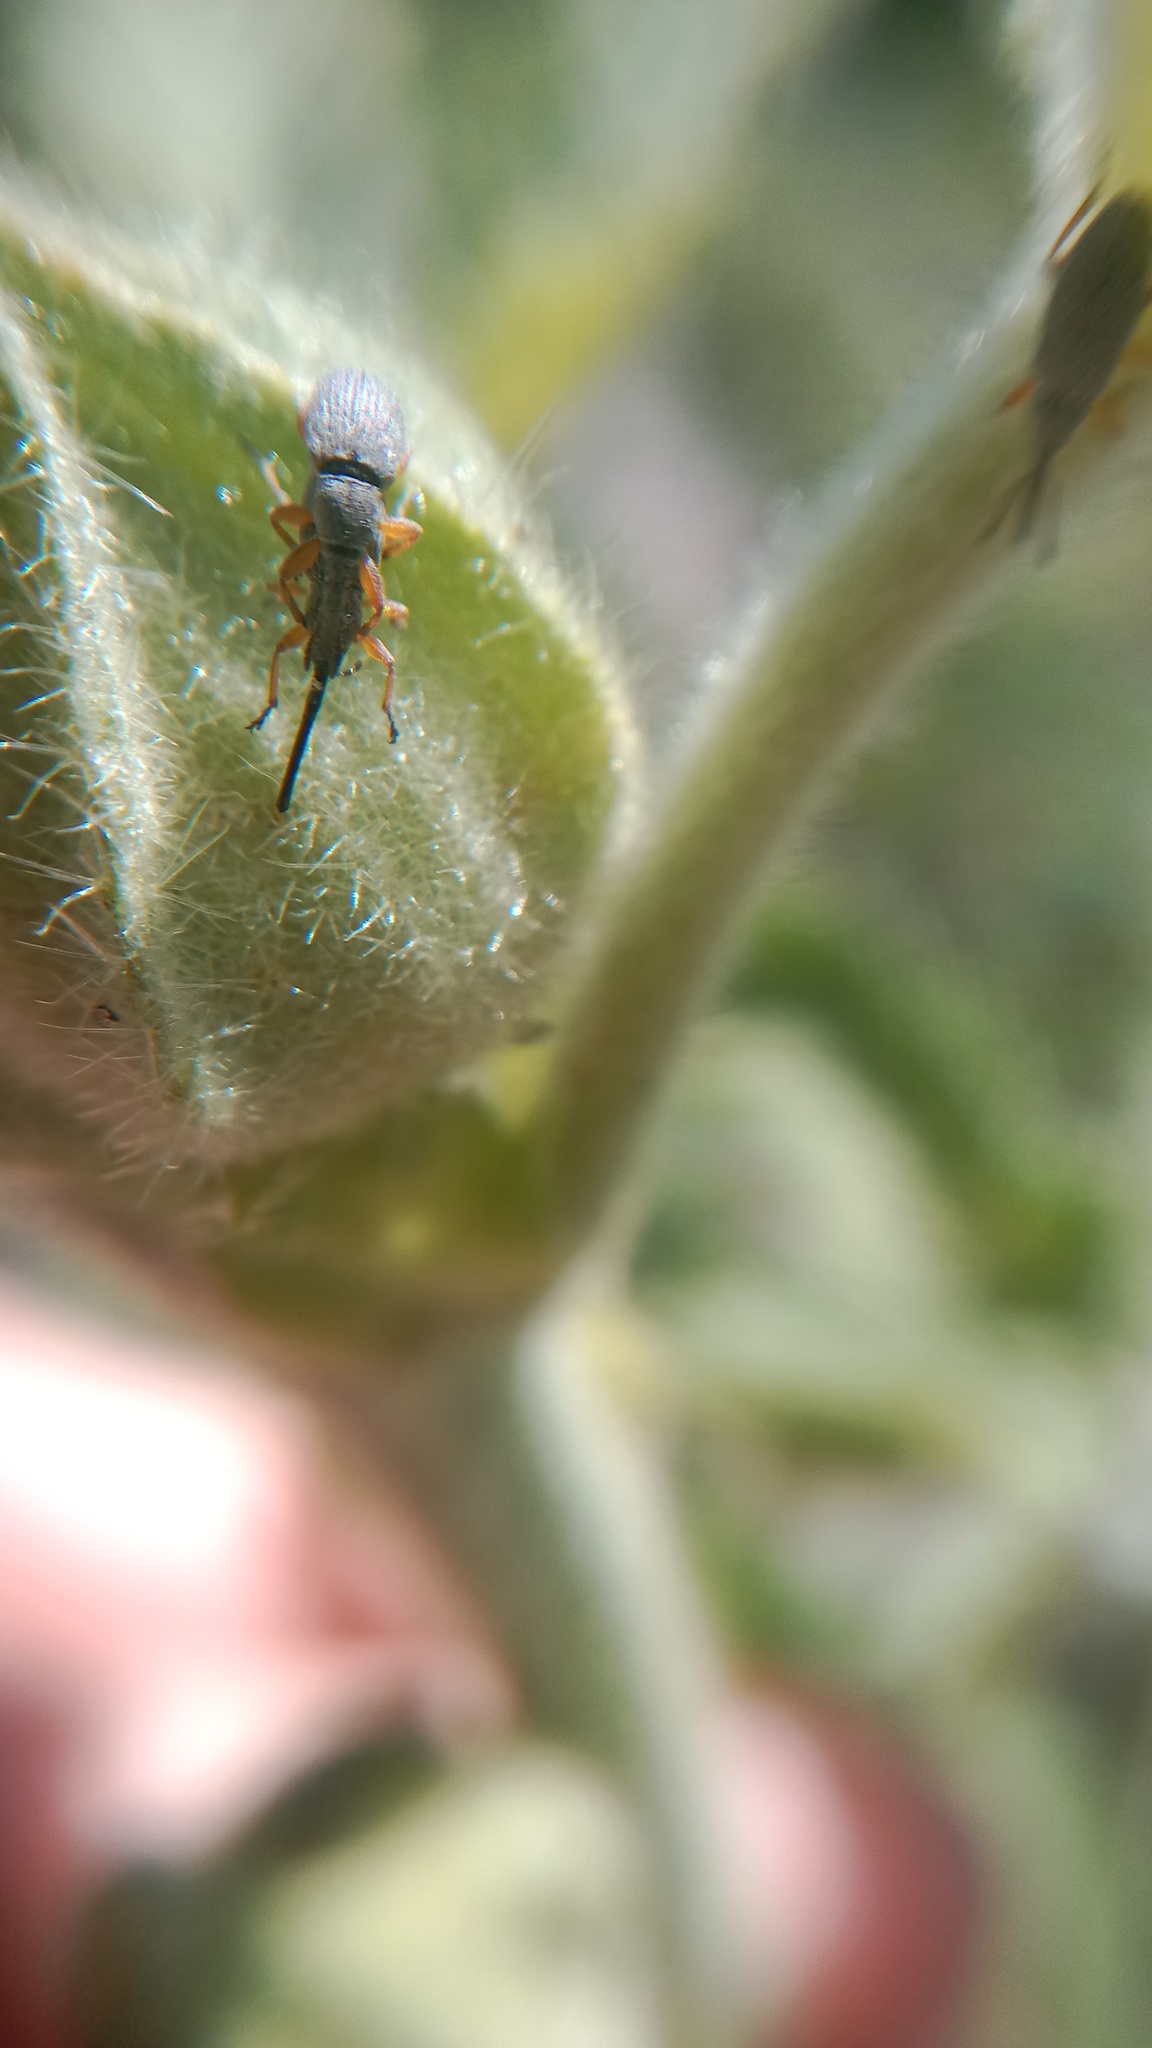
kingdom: Animalia
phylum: Arthropoda
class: Insecta
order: Coleoptera
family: Brentidae
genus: Rhopalapion
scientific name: Rhopalapion longirostre
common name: Hollyhock weevil
